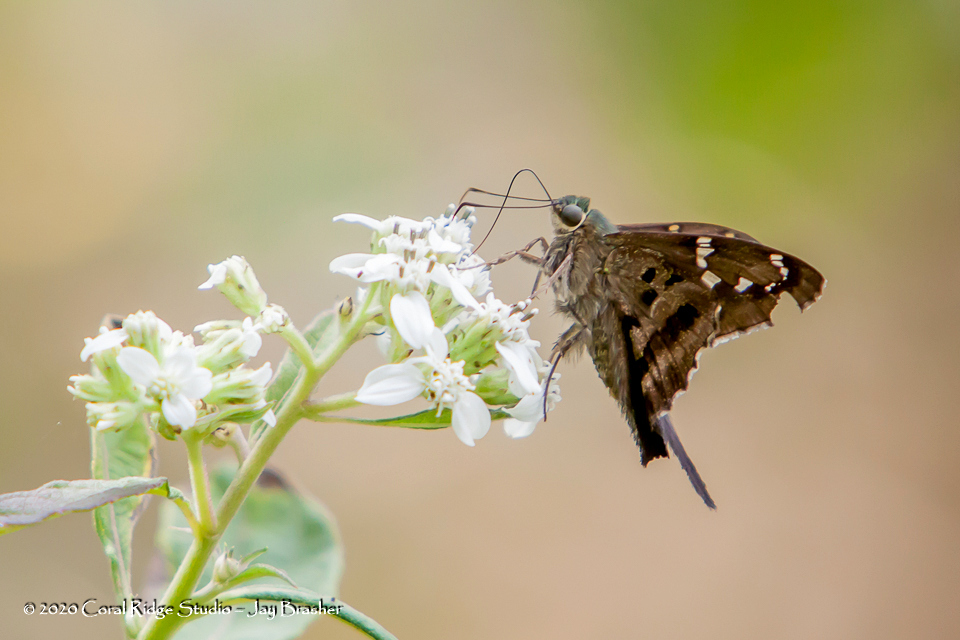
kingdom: Animalia
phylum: Arthropoda
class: Insecta
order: Lepidoptera
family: Hesperiidae
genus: Urbanus
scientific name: Urbanus proteus
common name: Long-tailed skipper
